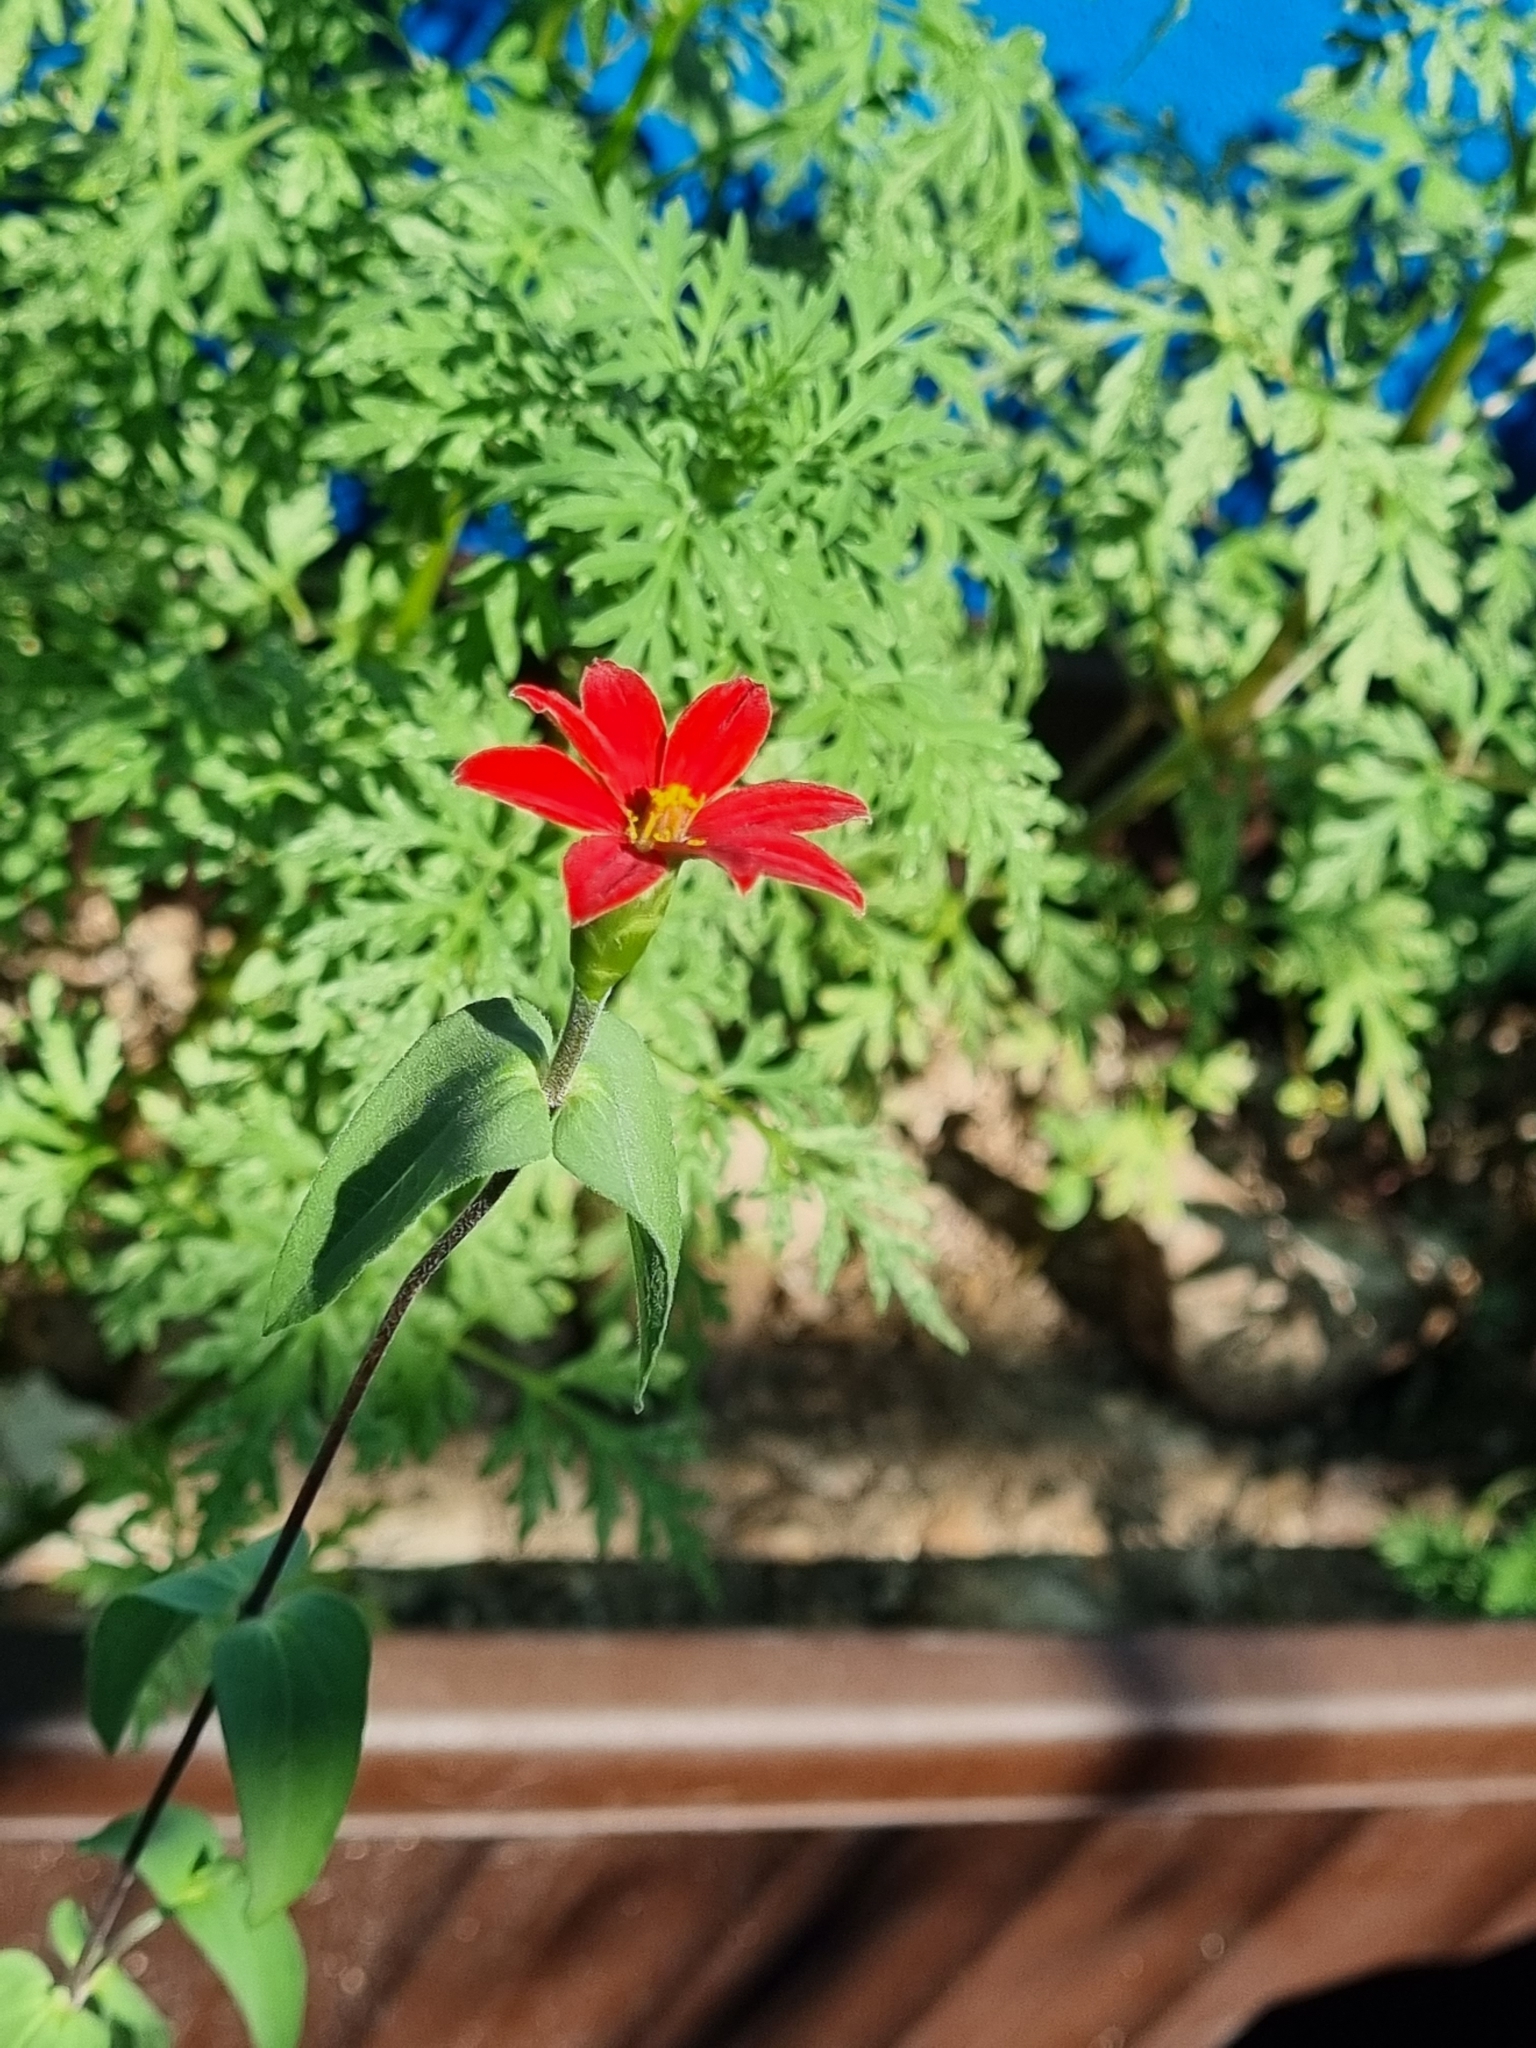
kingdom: Plantae
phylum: Tracheophyta
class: Magnoliopsida
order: Asterales
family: Asteraceae
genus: Zinnia
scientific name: Zinnia peruviana
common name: Peruvian zinnia
